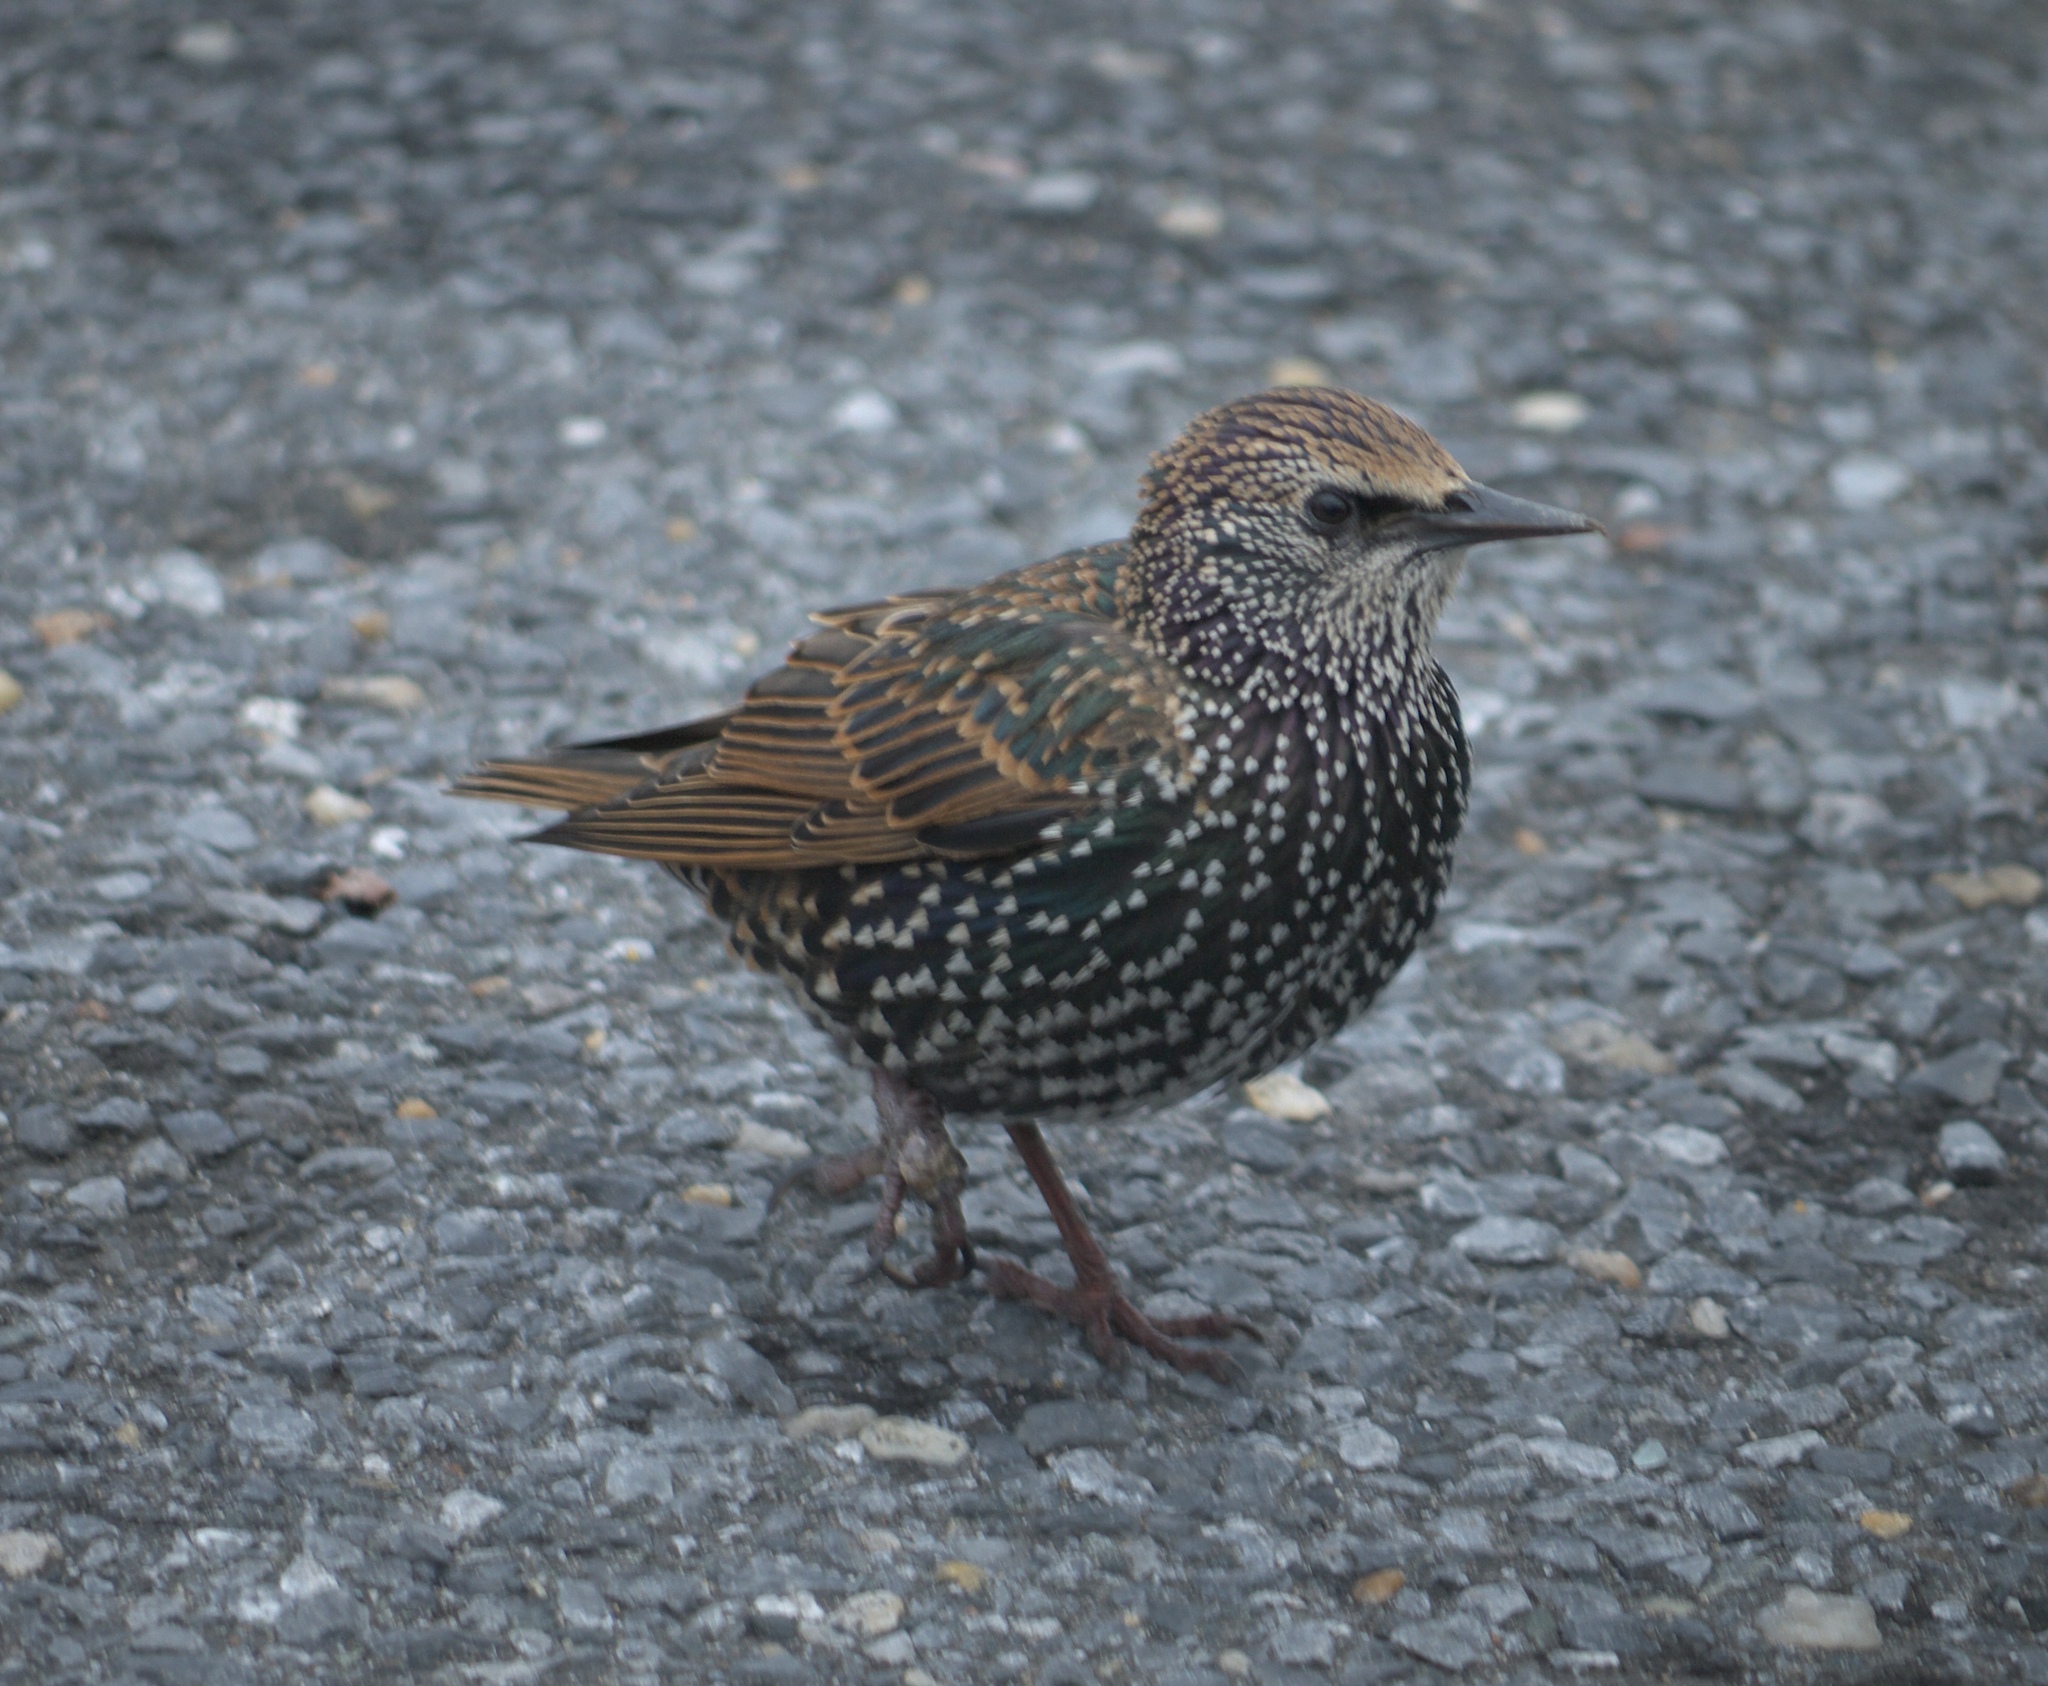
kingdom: Animalia
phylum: Chordata
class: Aves
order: Passeriformes
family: Sturnidae
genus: Sturnus
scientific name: Sturnus vulgaris
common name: Common starling
